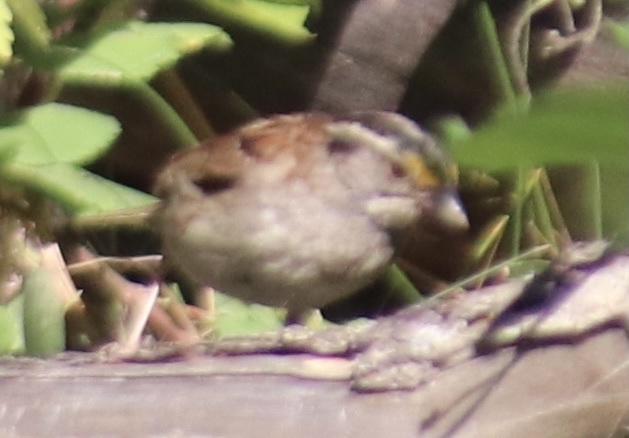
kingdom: Animalia
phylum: Chordata
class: Aves
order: Passeriformes
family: Passerellidae
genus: Zonotrichia
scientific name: Zonotrichia albicollis
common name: White-throated sparrow
